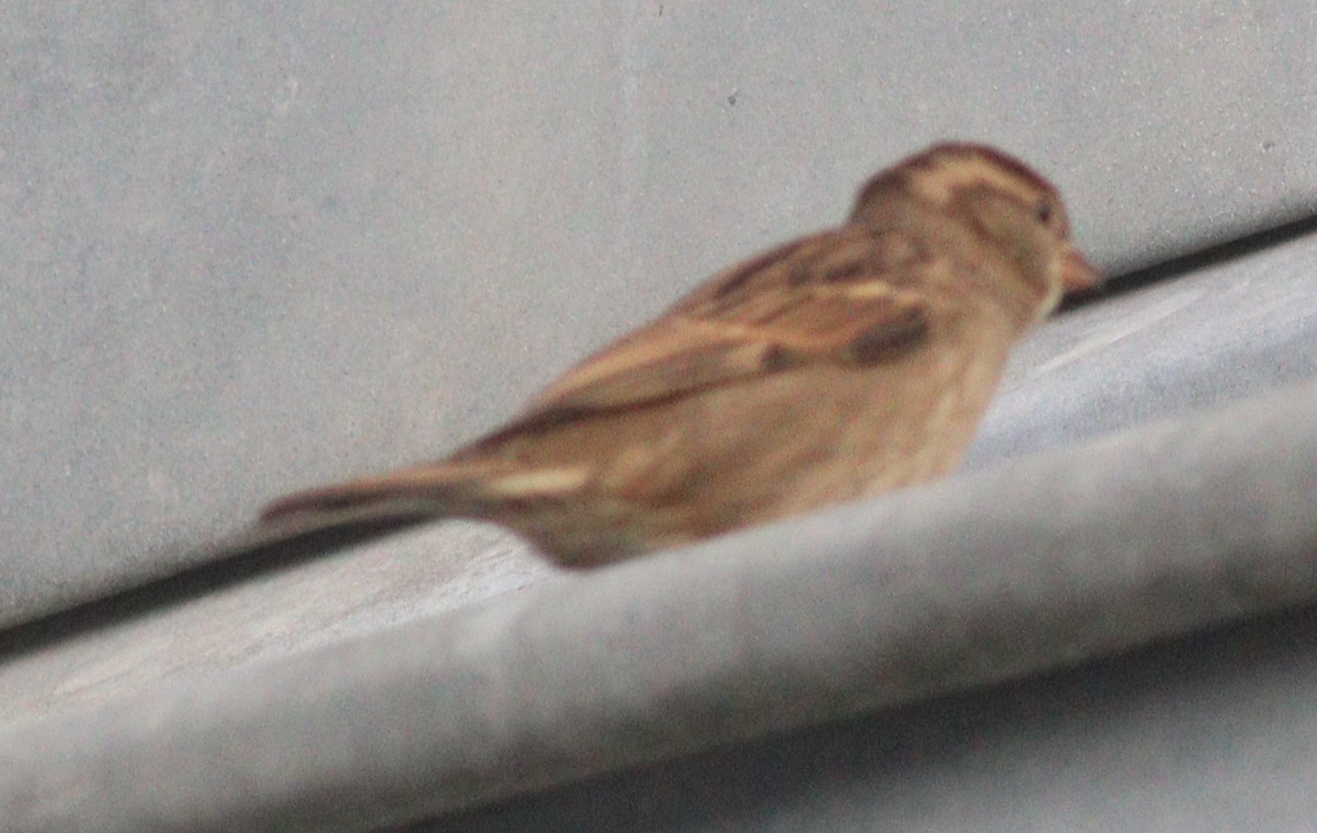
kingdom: Animalia
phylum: Chordata
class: Aves
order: Passeriformes
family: Passeridae
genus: Passer
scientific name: Passer domesticus
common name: House sparrow
